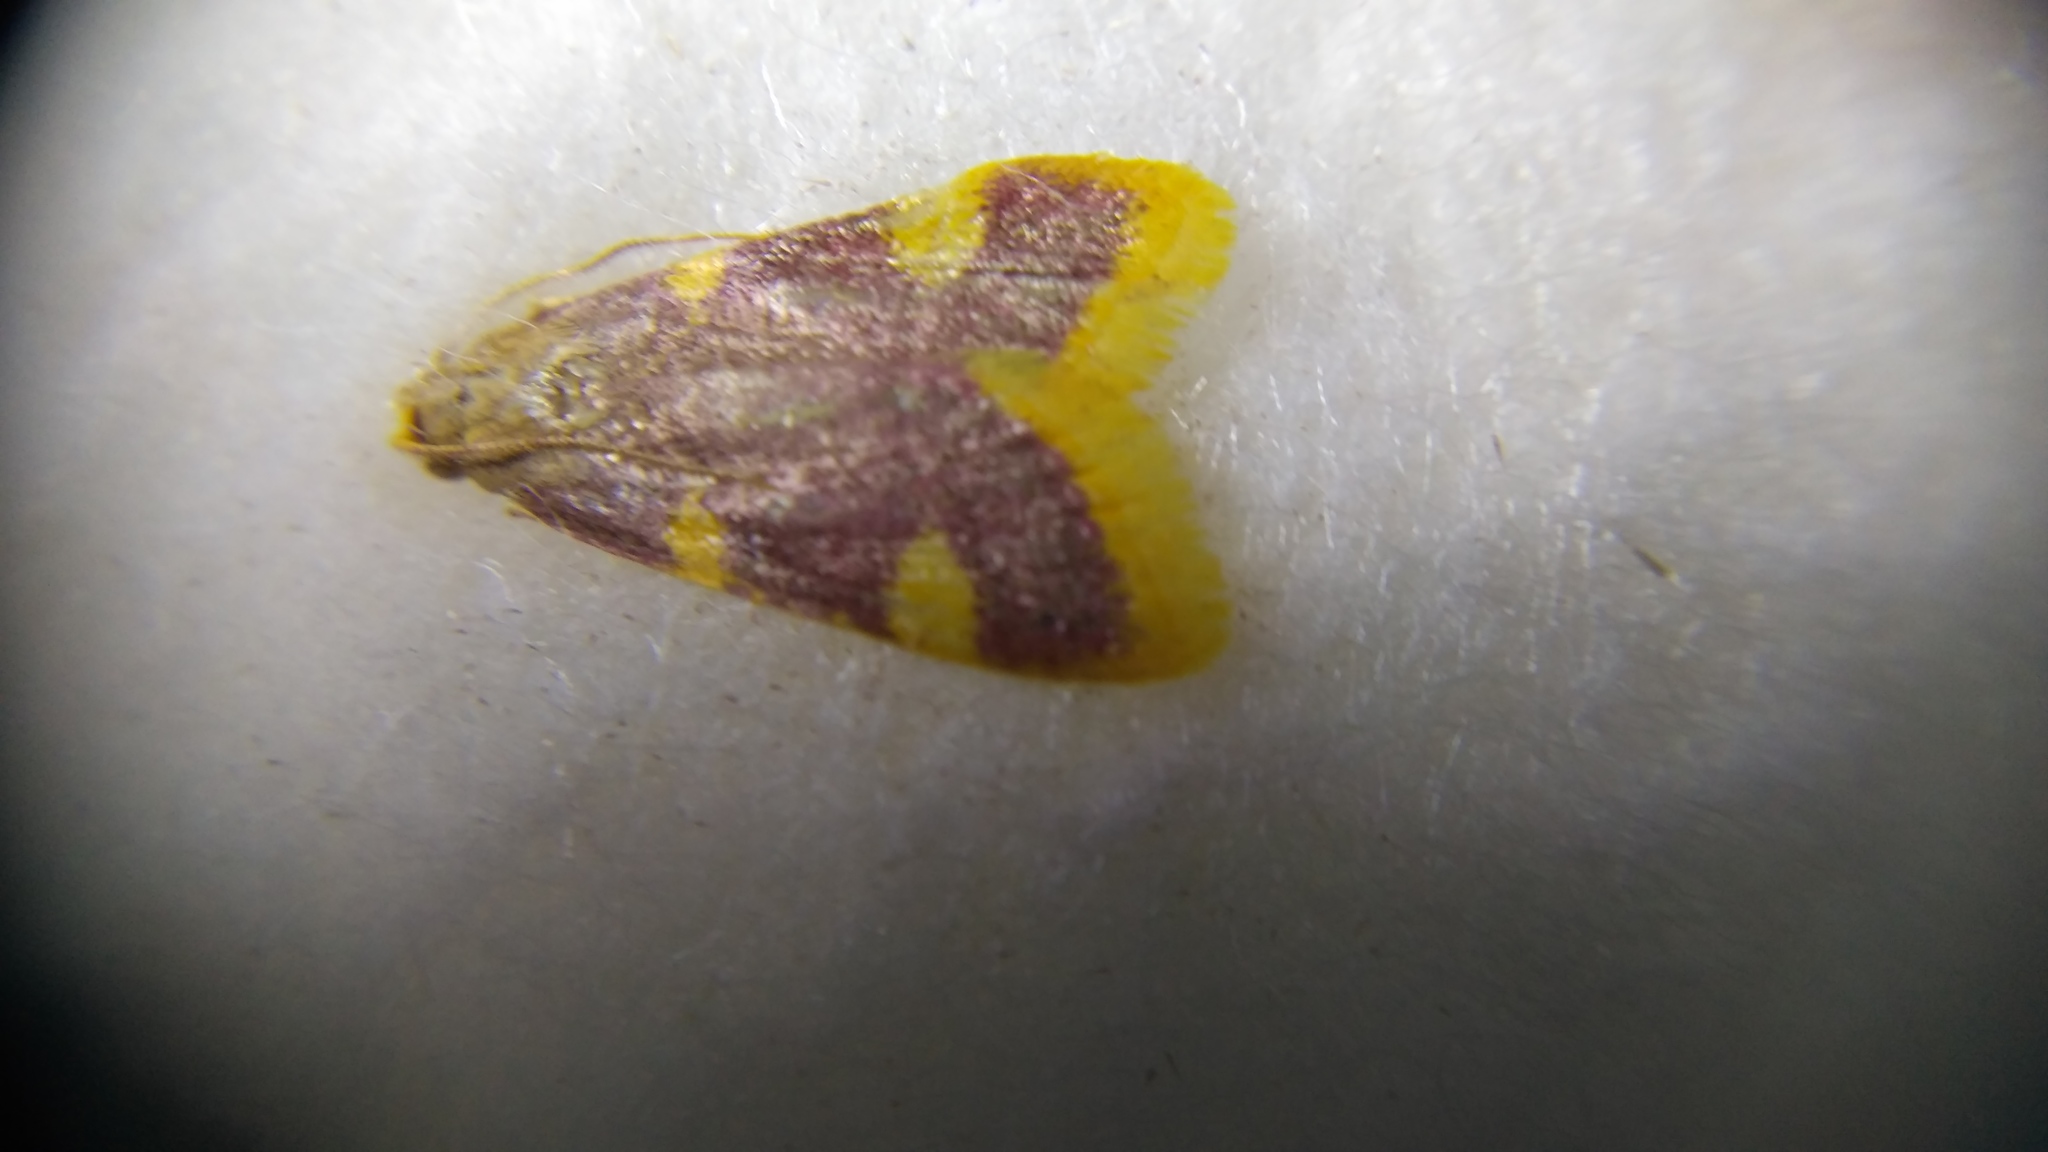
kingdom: Animalia
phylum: Arthropoda
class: Insecta
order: Lepidoptera
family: Pyralidae
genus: Hypsopygia
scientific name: Hypsopygia costalis
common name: Gold triangle
